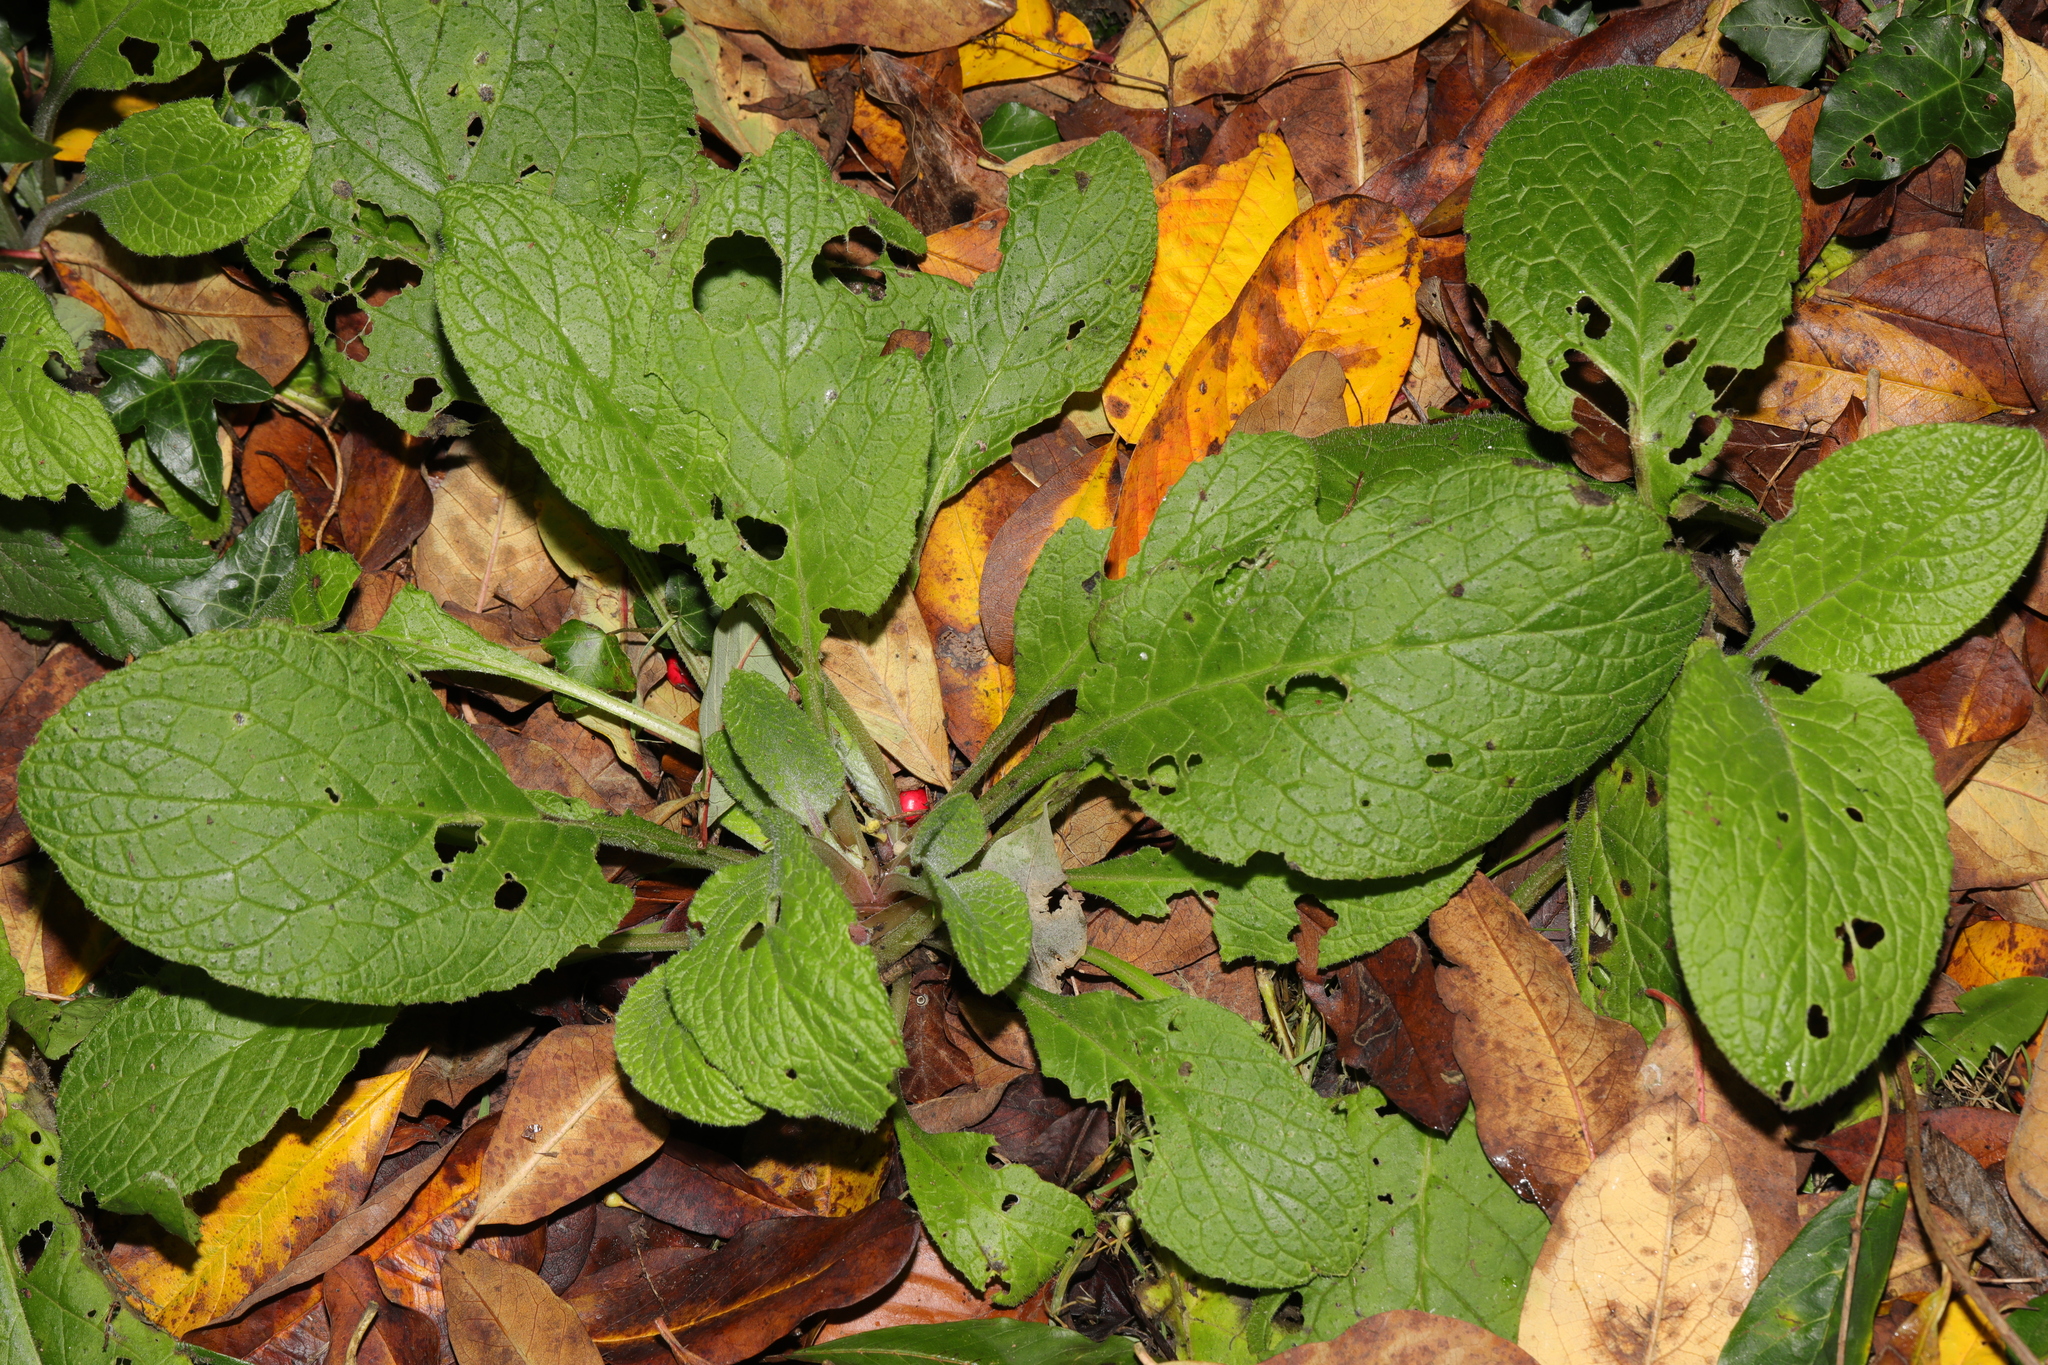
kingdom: Plantae
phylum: Tracheophyta
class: Magnoliopsida
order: Boraginales
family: Boraginaceae
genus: Pentaglottis
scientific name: Pentaglottis sempervirens
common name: Green alkanet
